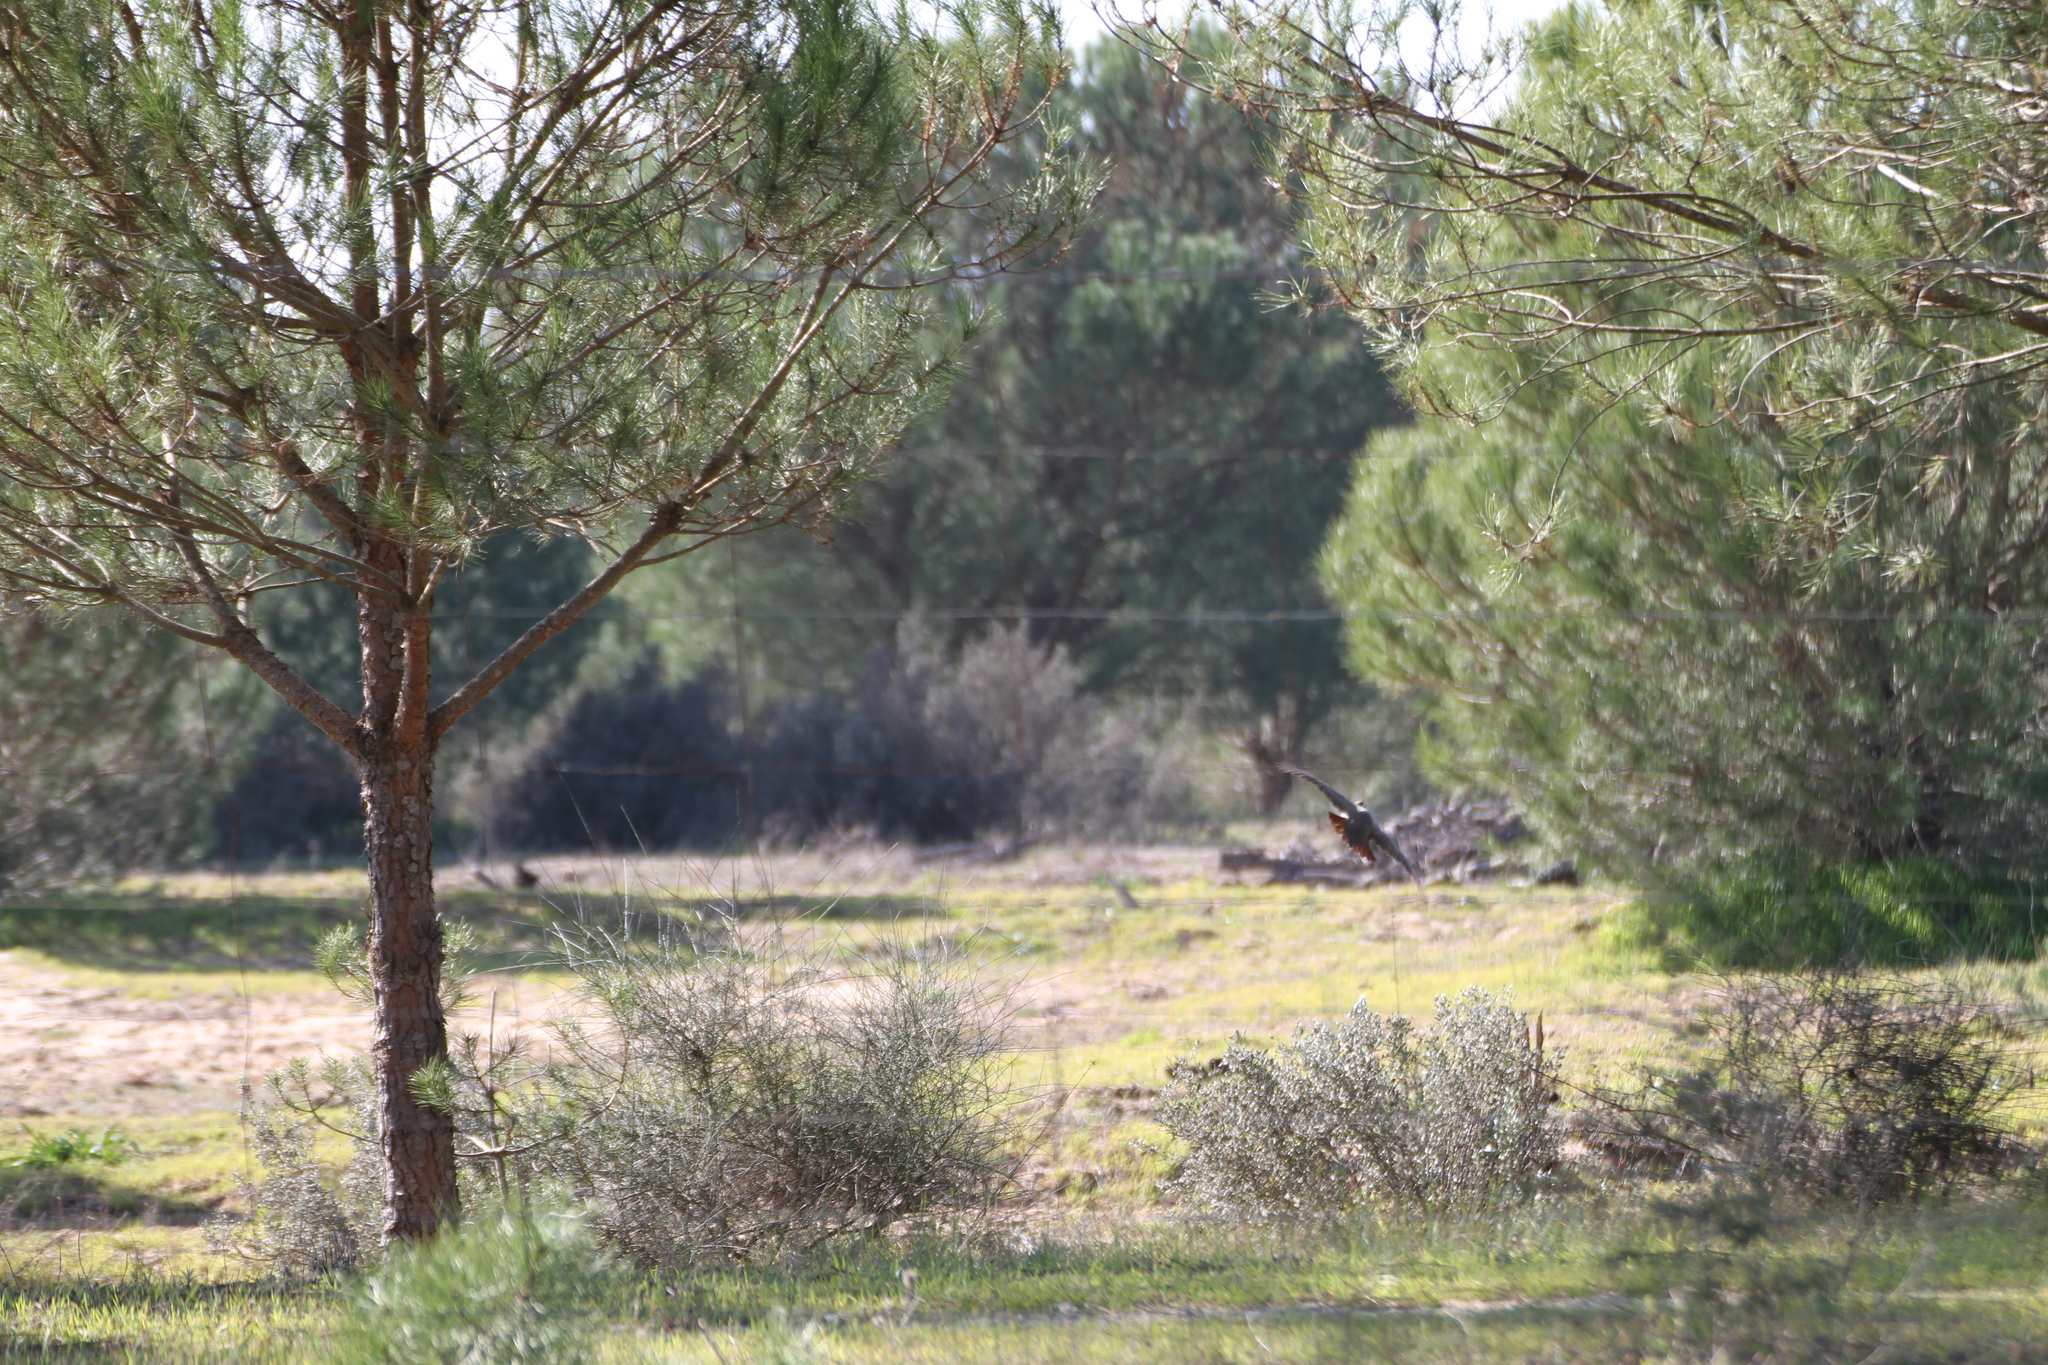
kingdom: Animalia
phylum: Chordata
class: Aves
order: Galliformes
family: Phasianidae
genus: Alectoris
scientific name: Alectoris rufa
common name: Red-legged partridge
